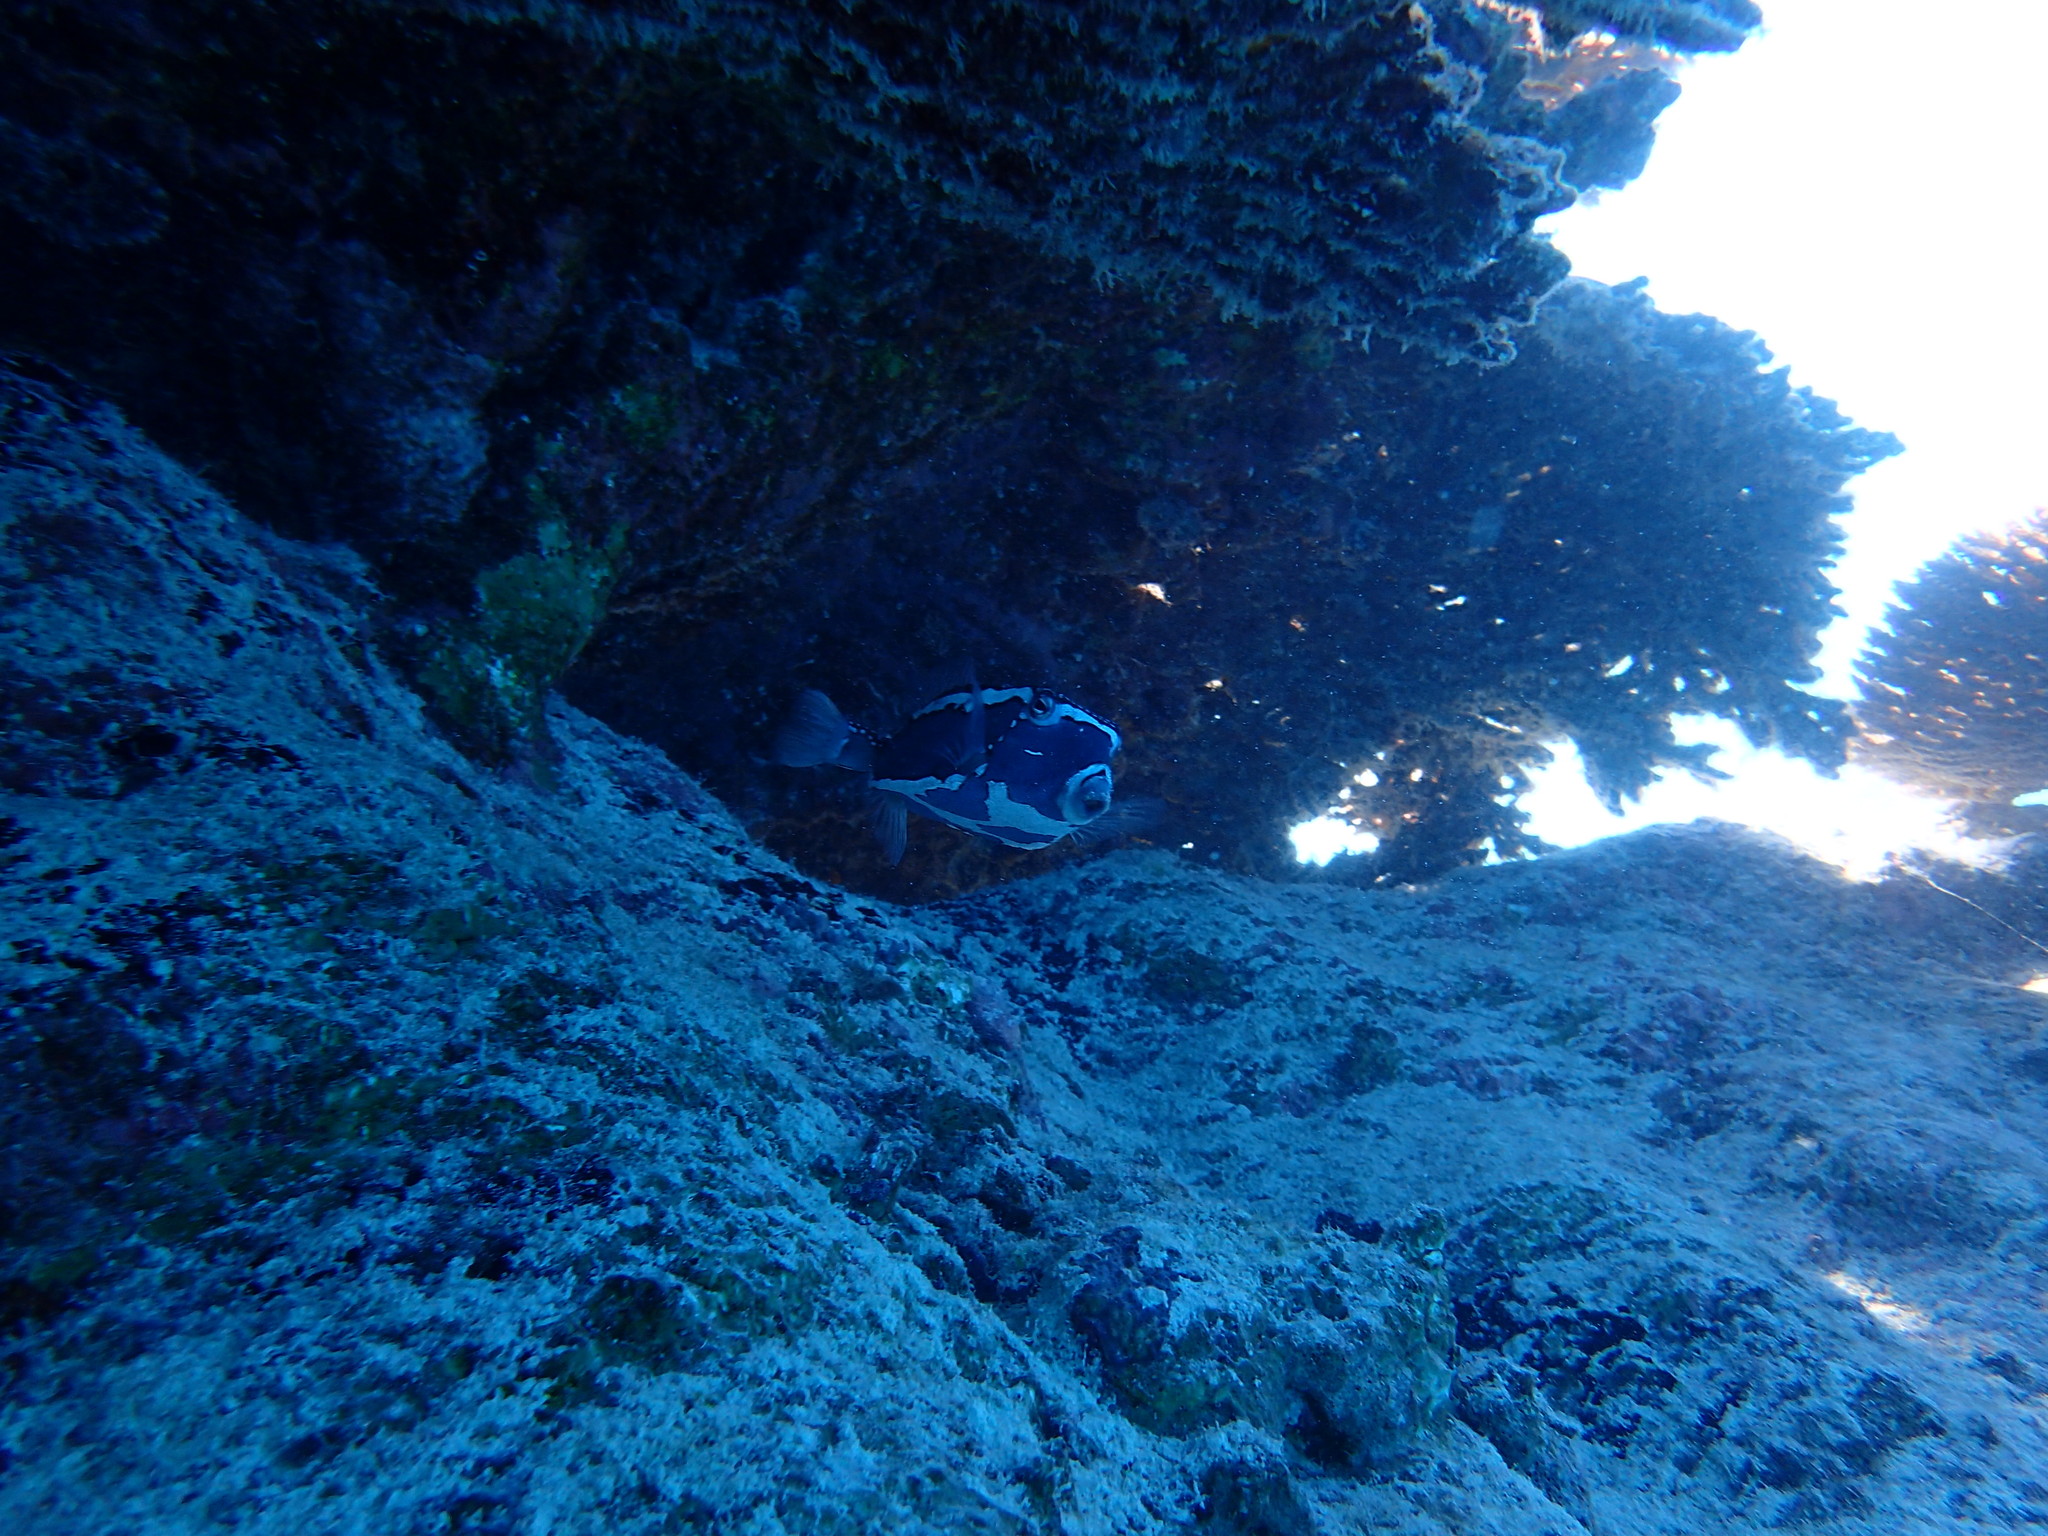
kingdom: Animalia
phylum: Chordata
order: Tetraodontiformes
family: Ostraciidae
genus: Ostracion
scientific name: Ostracion whitleyi
